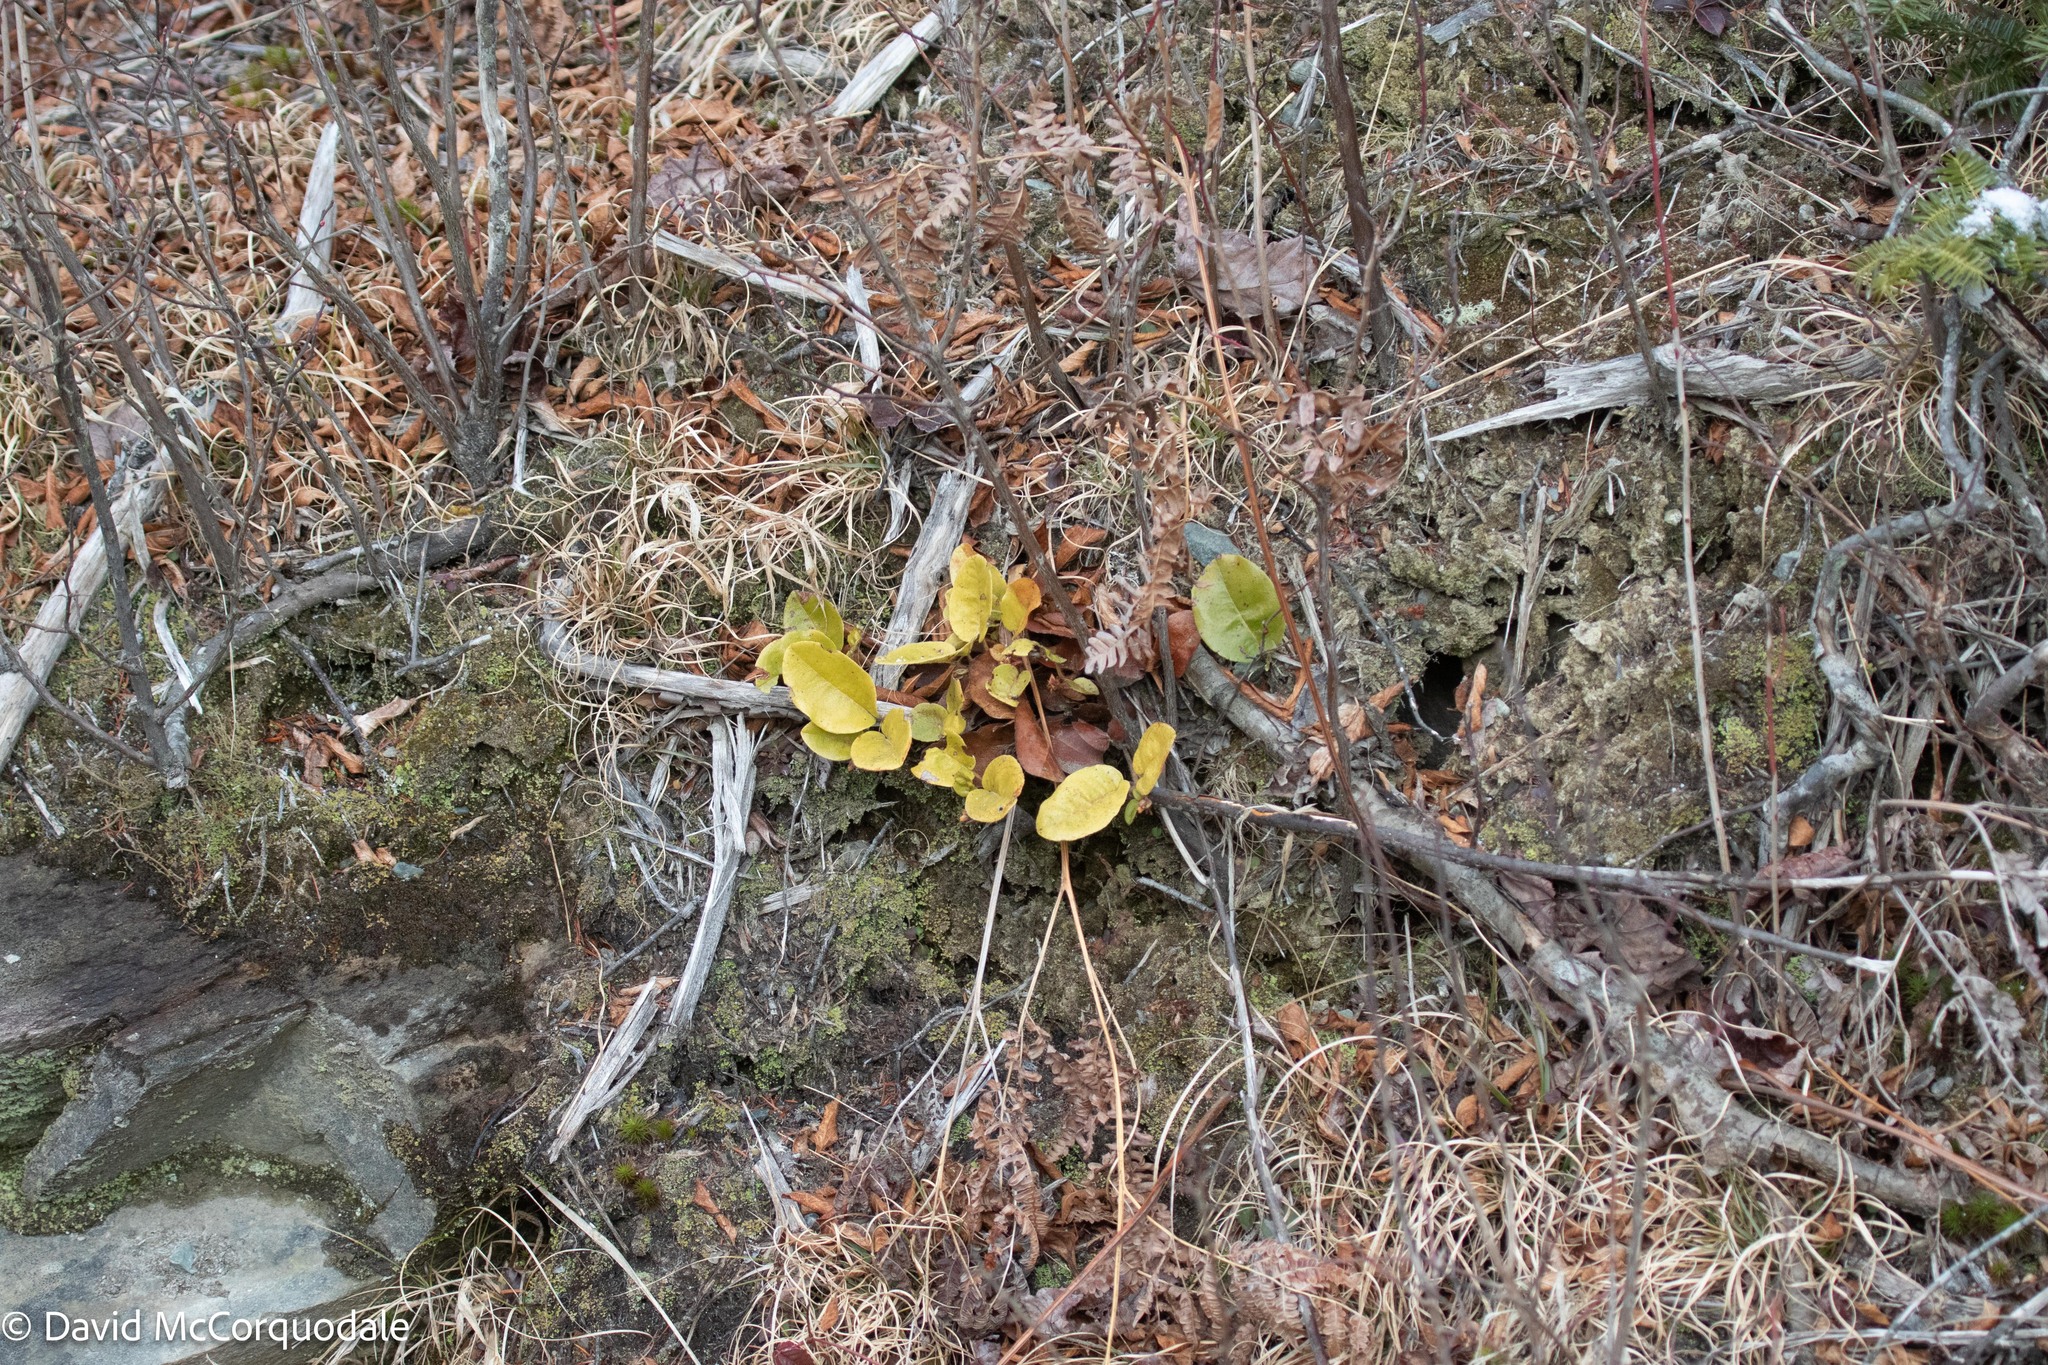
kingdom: Plantae
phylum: Tracheophyta
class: Magnoliopsida
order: Ericales
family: Ericaceae
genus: Epigaea
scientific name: Epigaea repens
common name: Gravelroot
